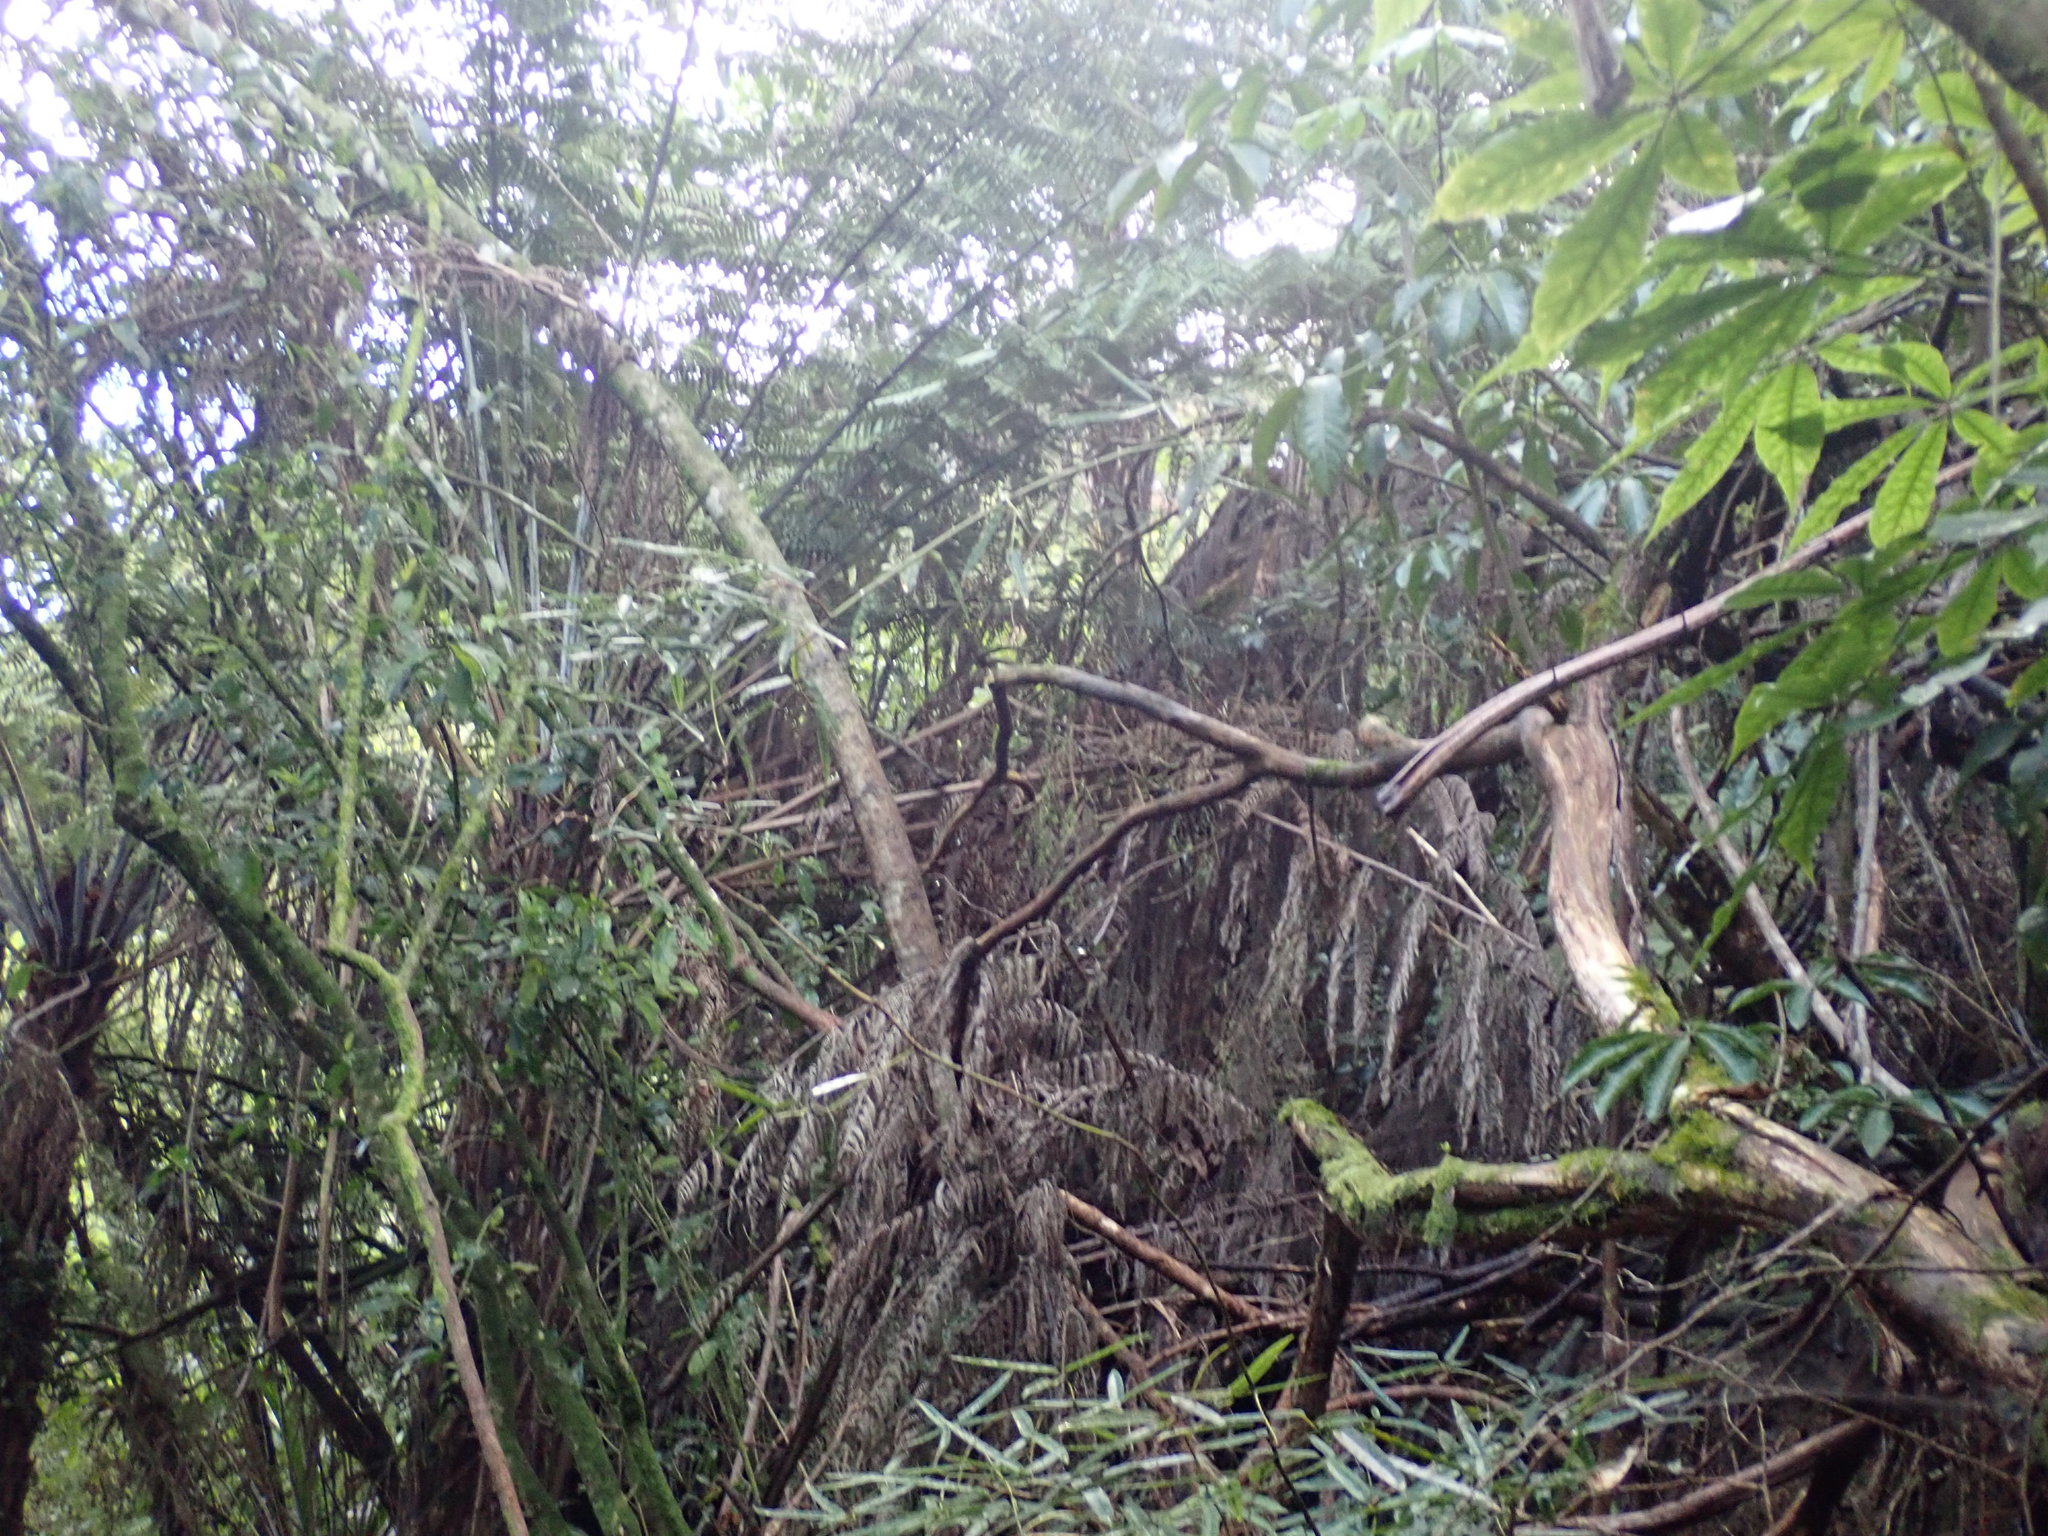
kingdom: Plantae
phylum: Tracheophyta
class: Polypodiopsida
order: Cyatheales
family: Cyatheaceae
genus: Alsophila
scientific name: Alsophila dealbata
